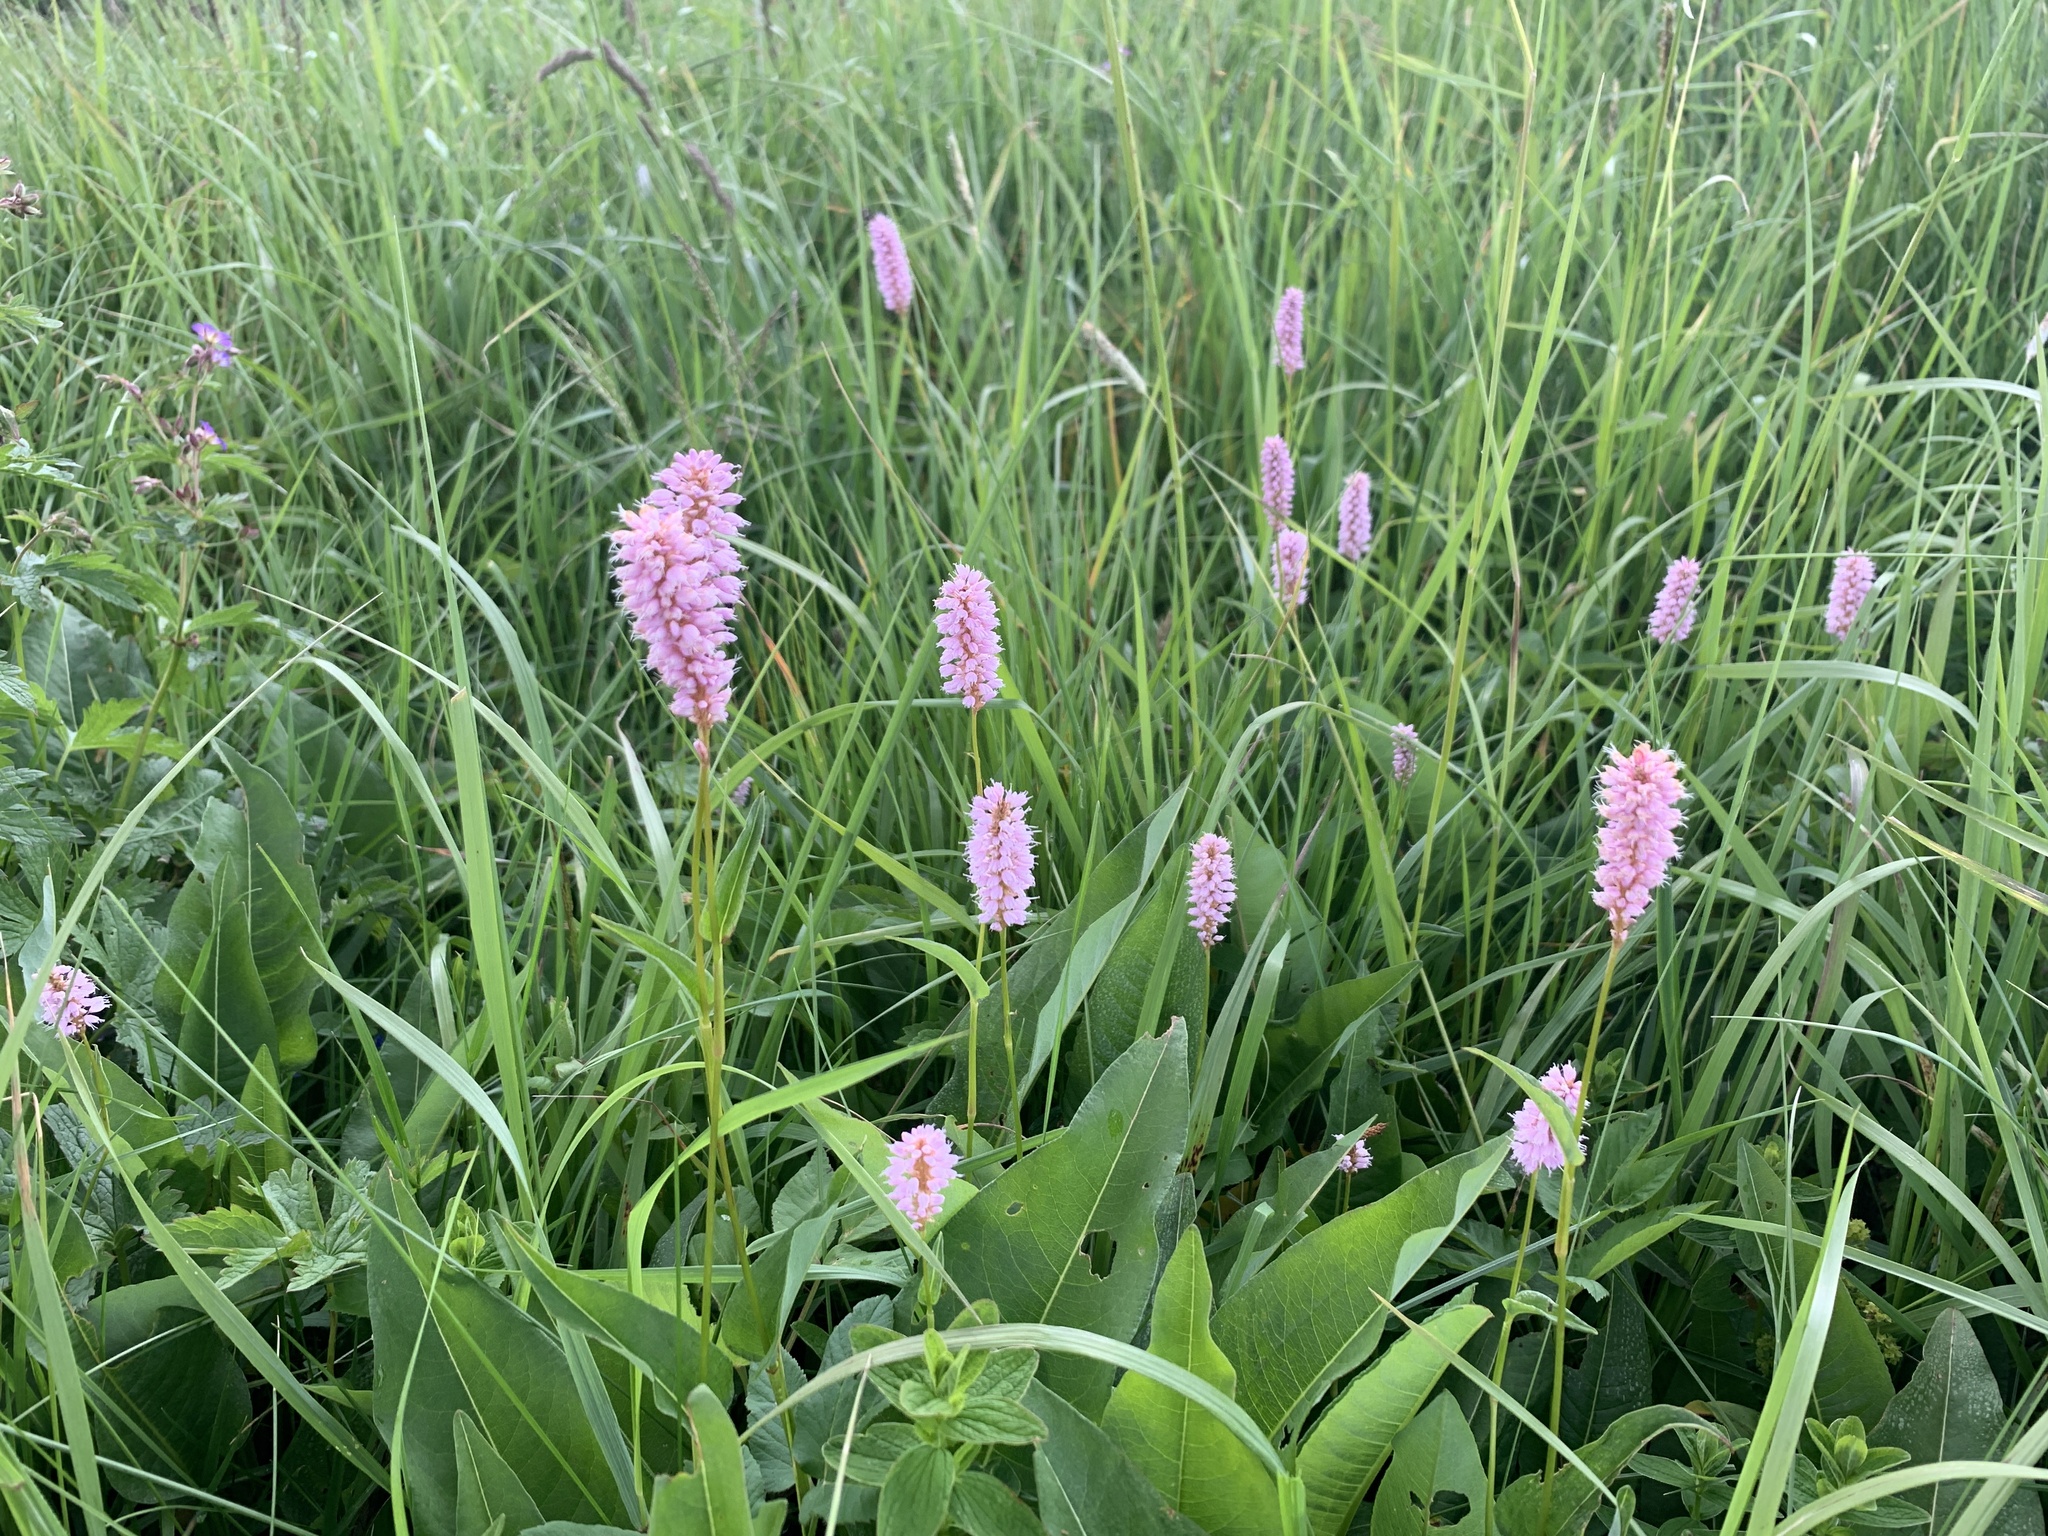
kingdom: Plantae
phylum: Tracheophyta
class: Magnoliopsida
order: Caryophyllales
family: Polygonaceae
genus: Bistorta
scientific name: Bistorta officinalis
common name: Common bistort
